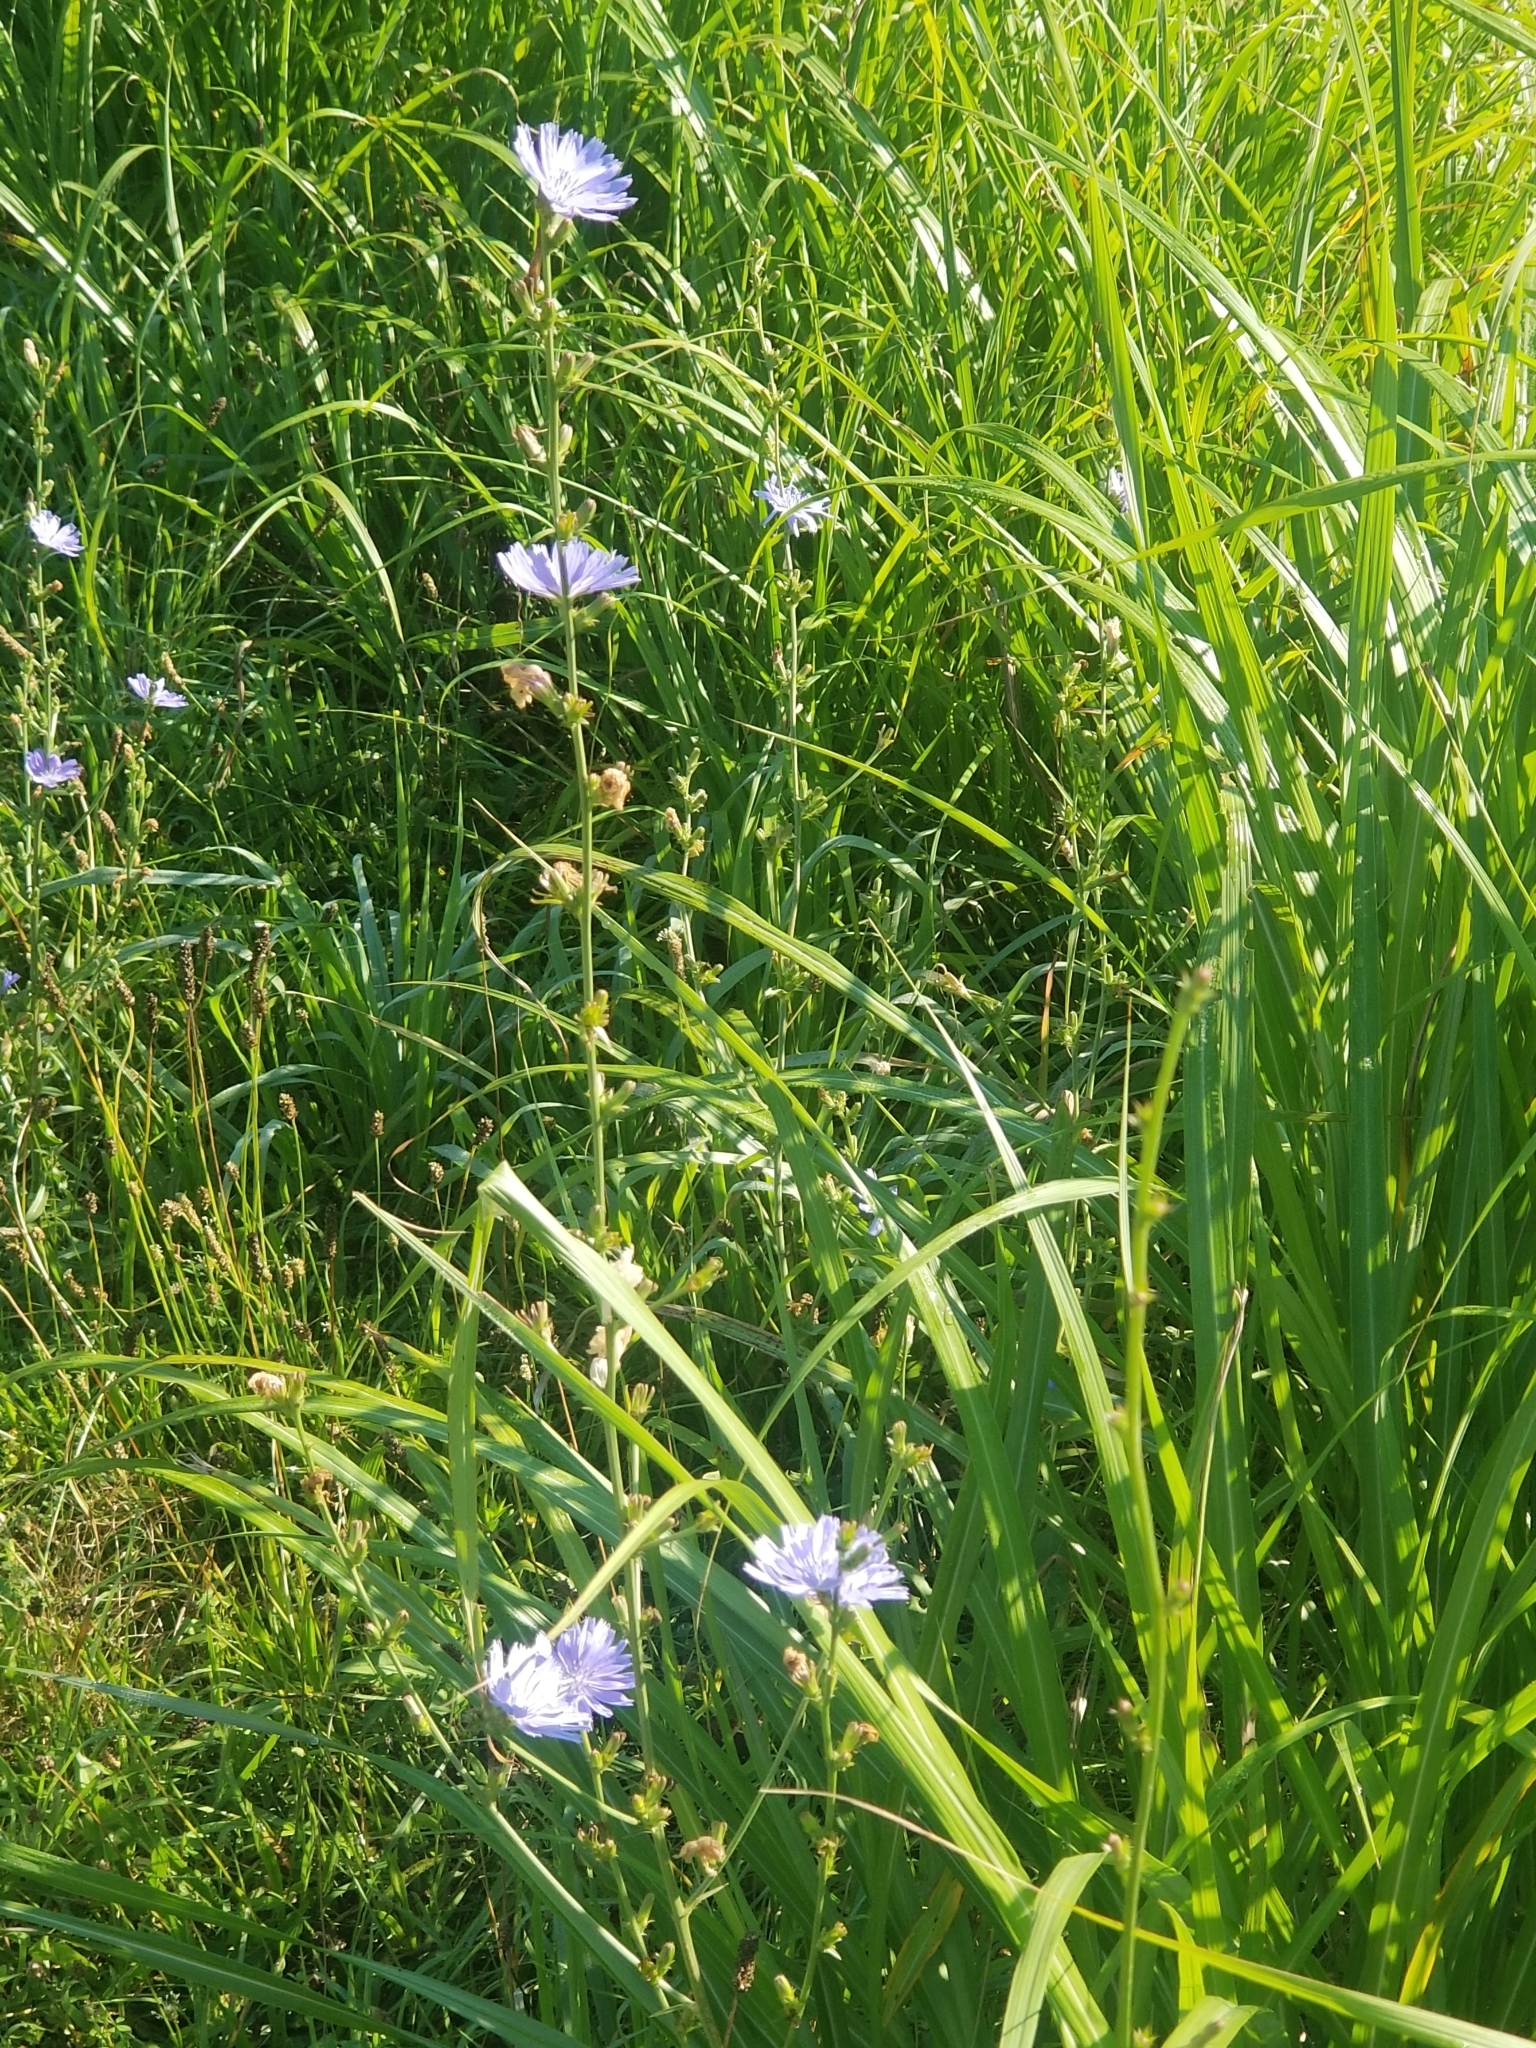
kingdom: Plantae
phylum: Tracheophyta
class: Magnoliopsida
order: Asterales
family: Asteraceae
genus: Cichorium
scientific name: Cichorium intybus
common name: Chicory
